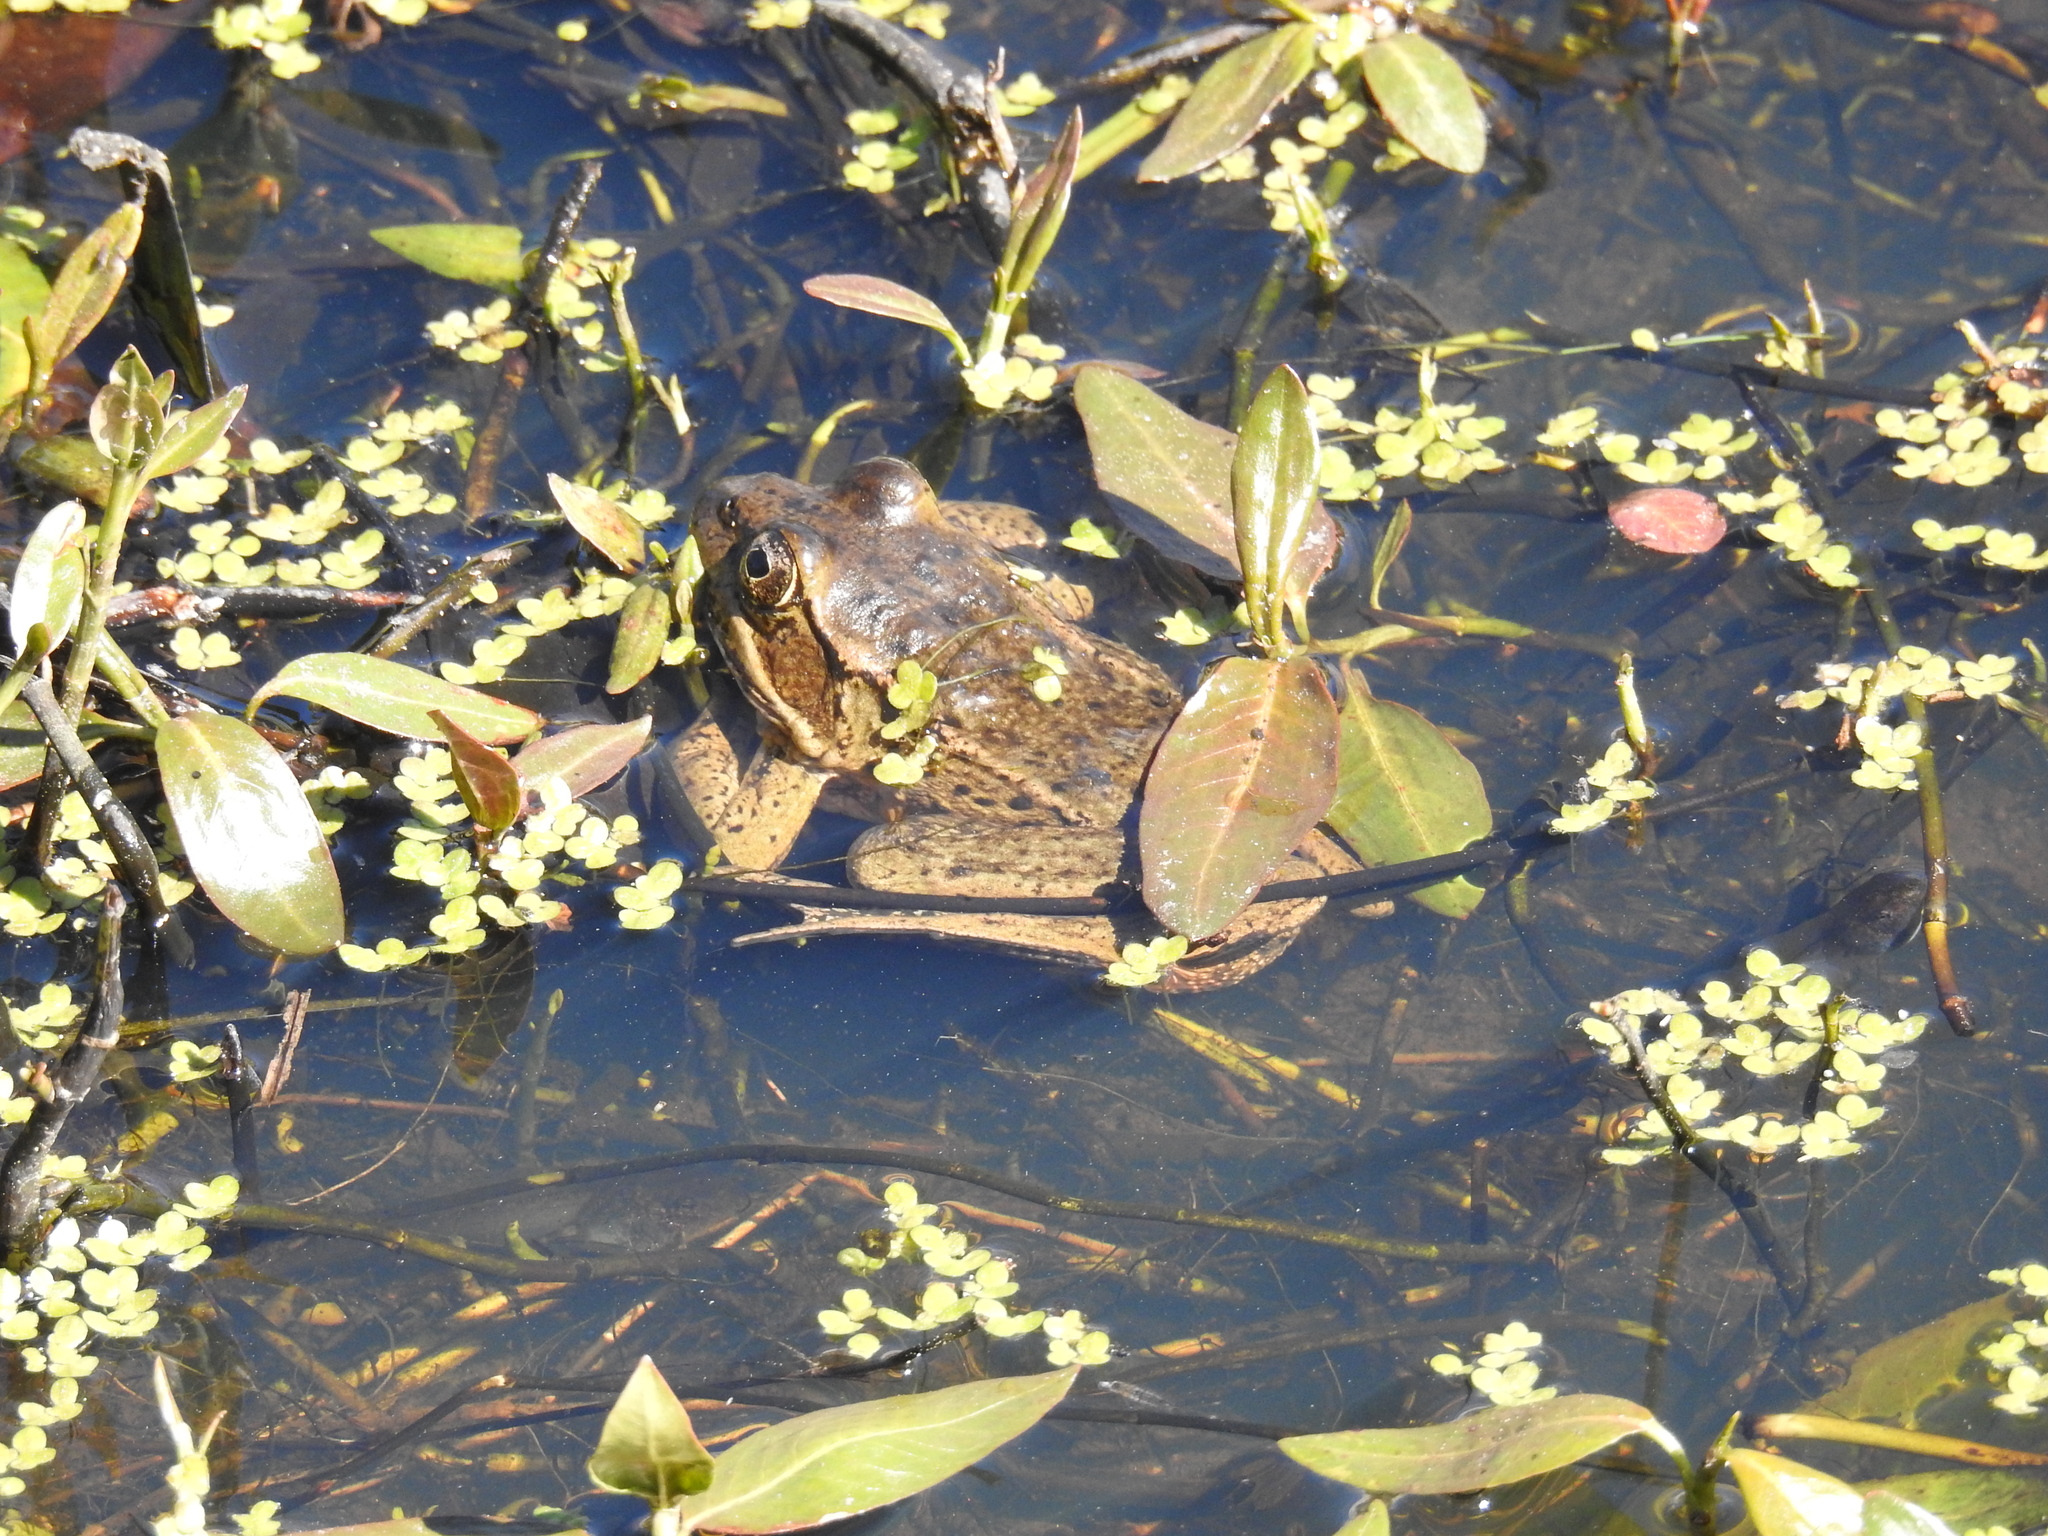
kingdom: Animalia
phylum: Chordata
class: Amphibia
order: Anura
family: Ranidae
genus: Rana
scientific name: Rana draytonii
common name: California red-legged frog
